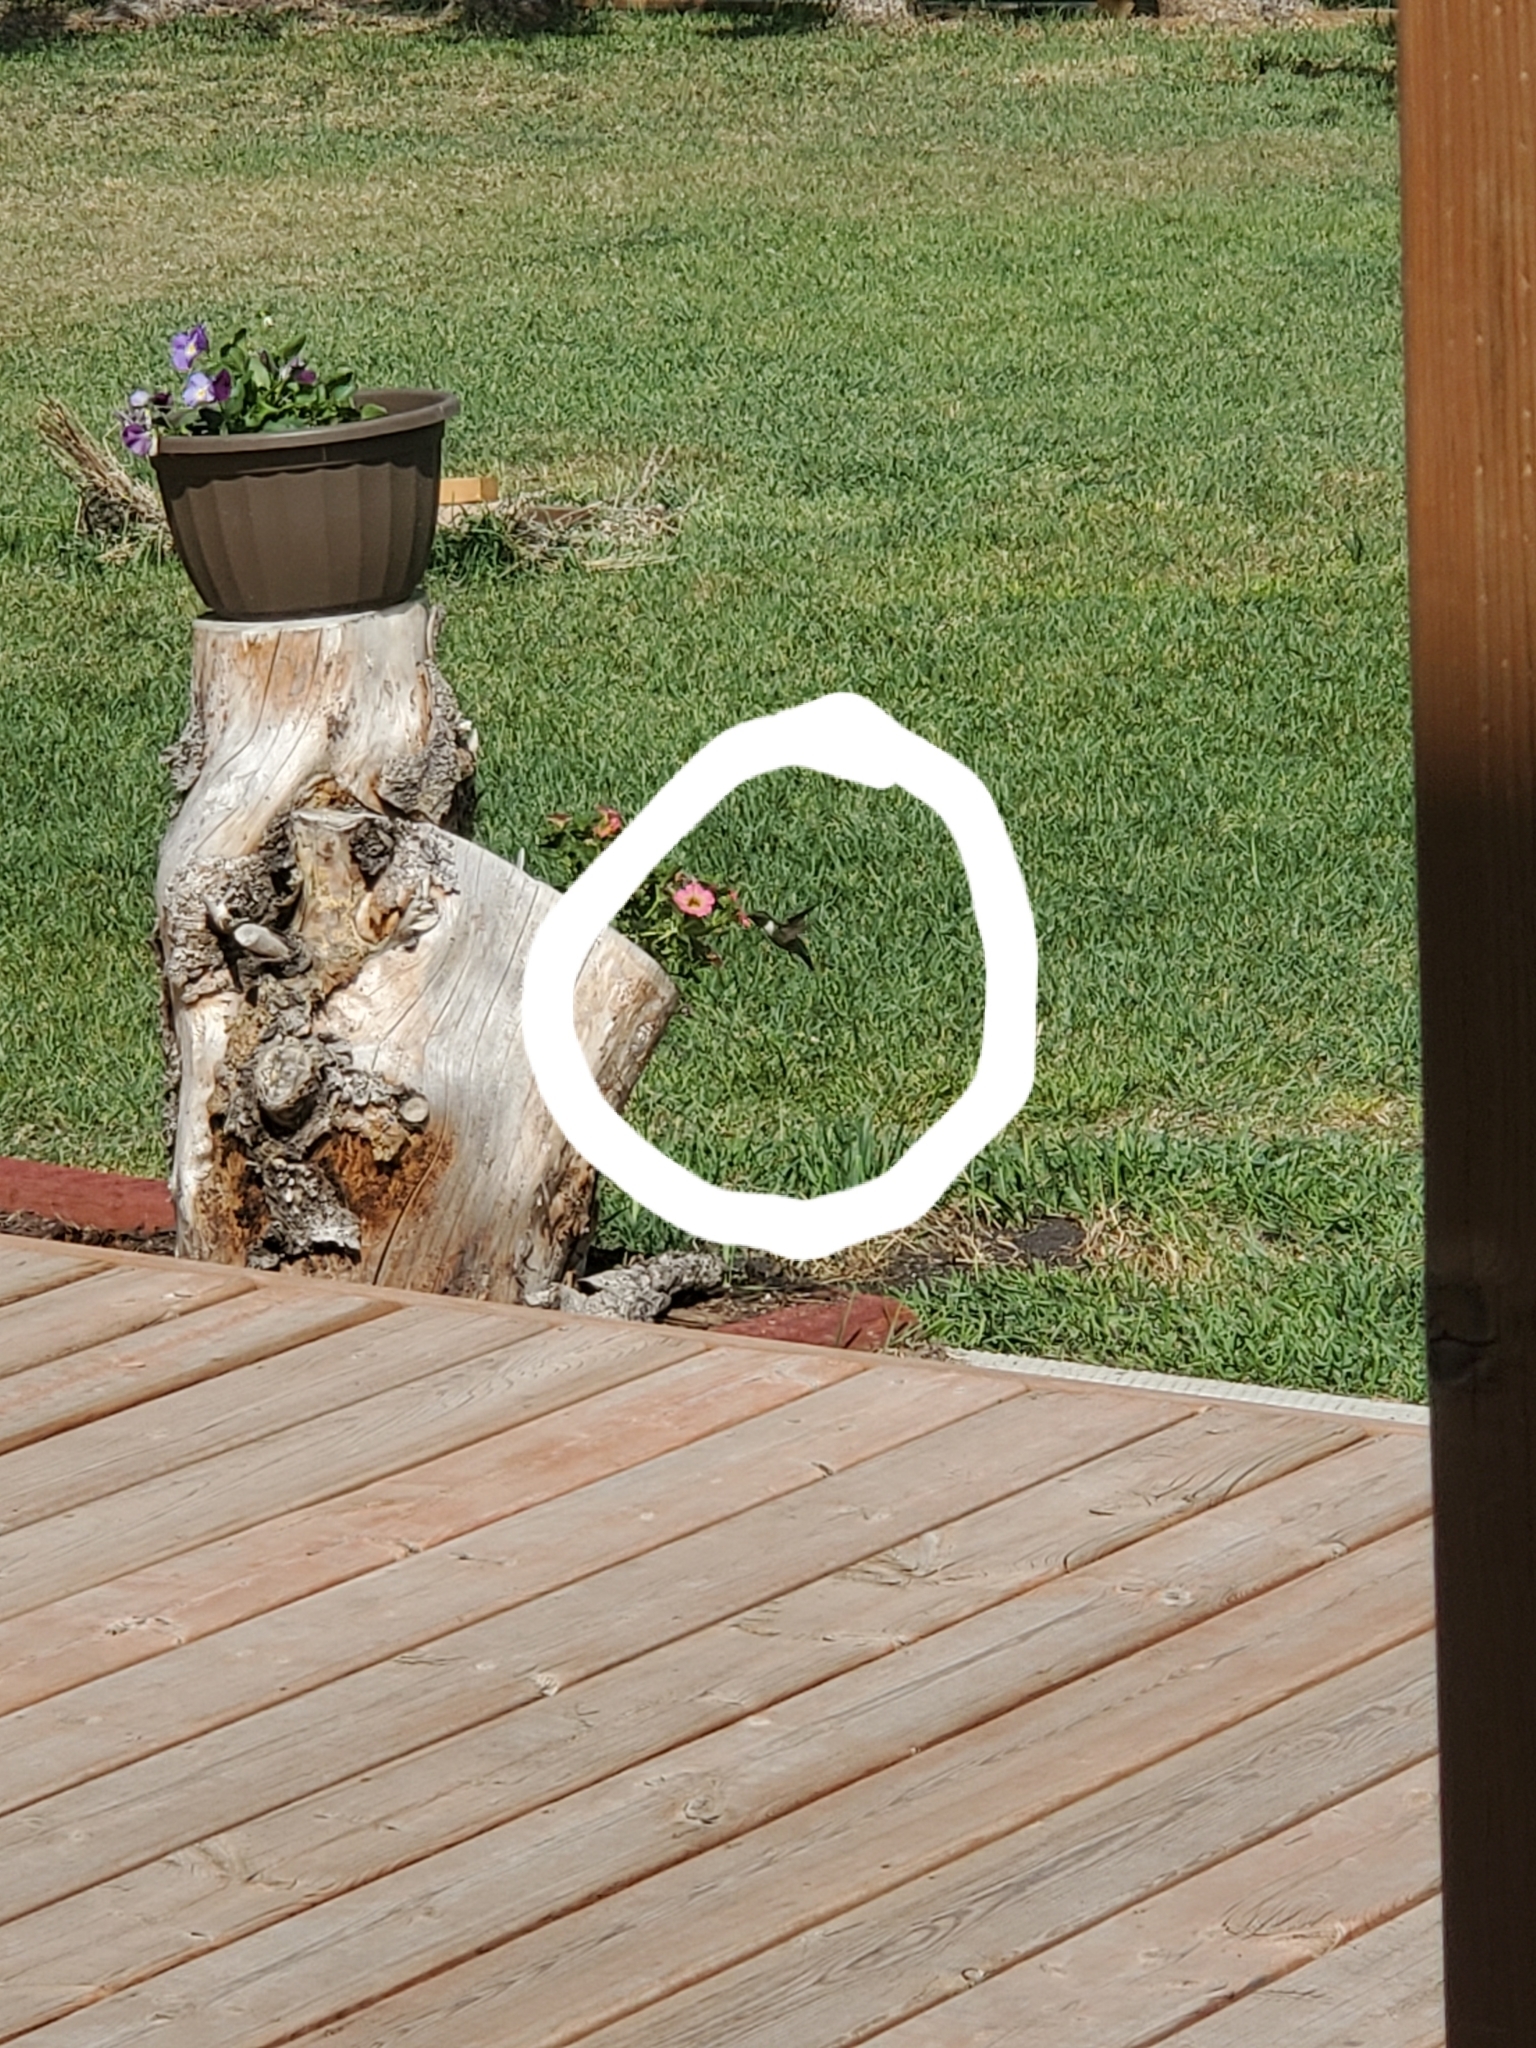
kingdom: Animalia
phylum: Chordata
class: Aves
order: Apodiformes
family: Trochilidae
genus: Archilochus
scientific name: Archilochus colubris
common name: Ruby-throated hummingbird
